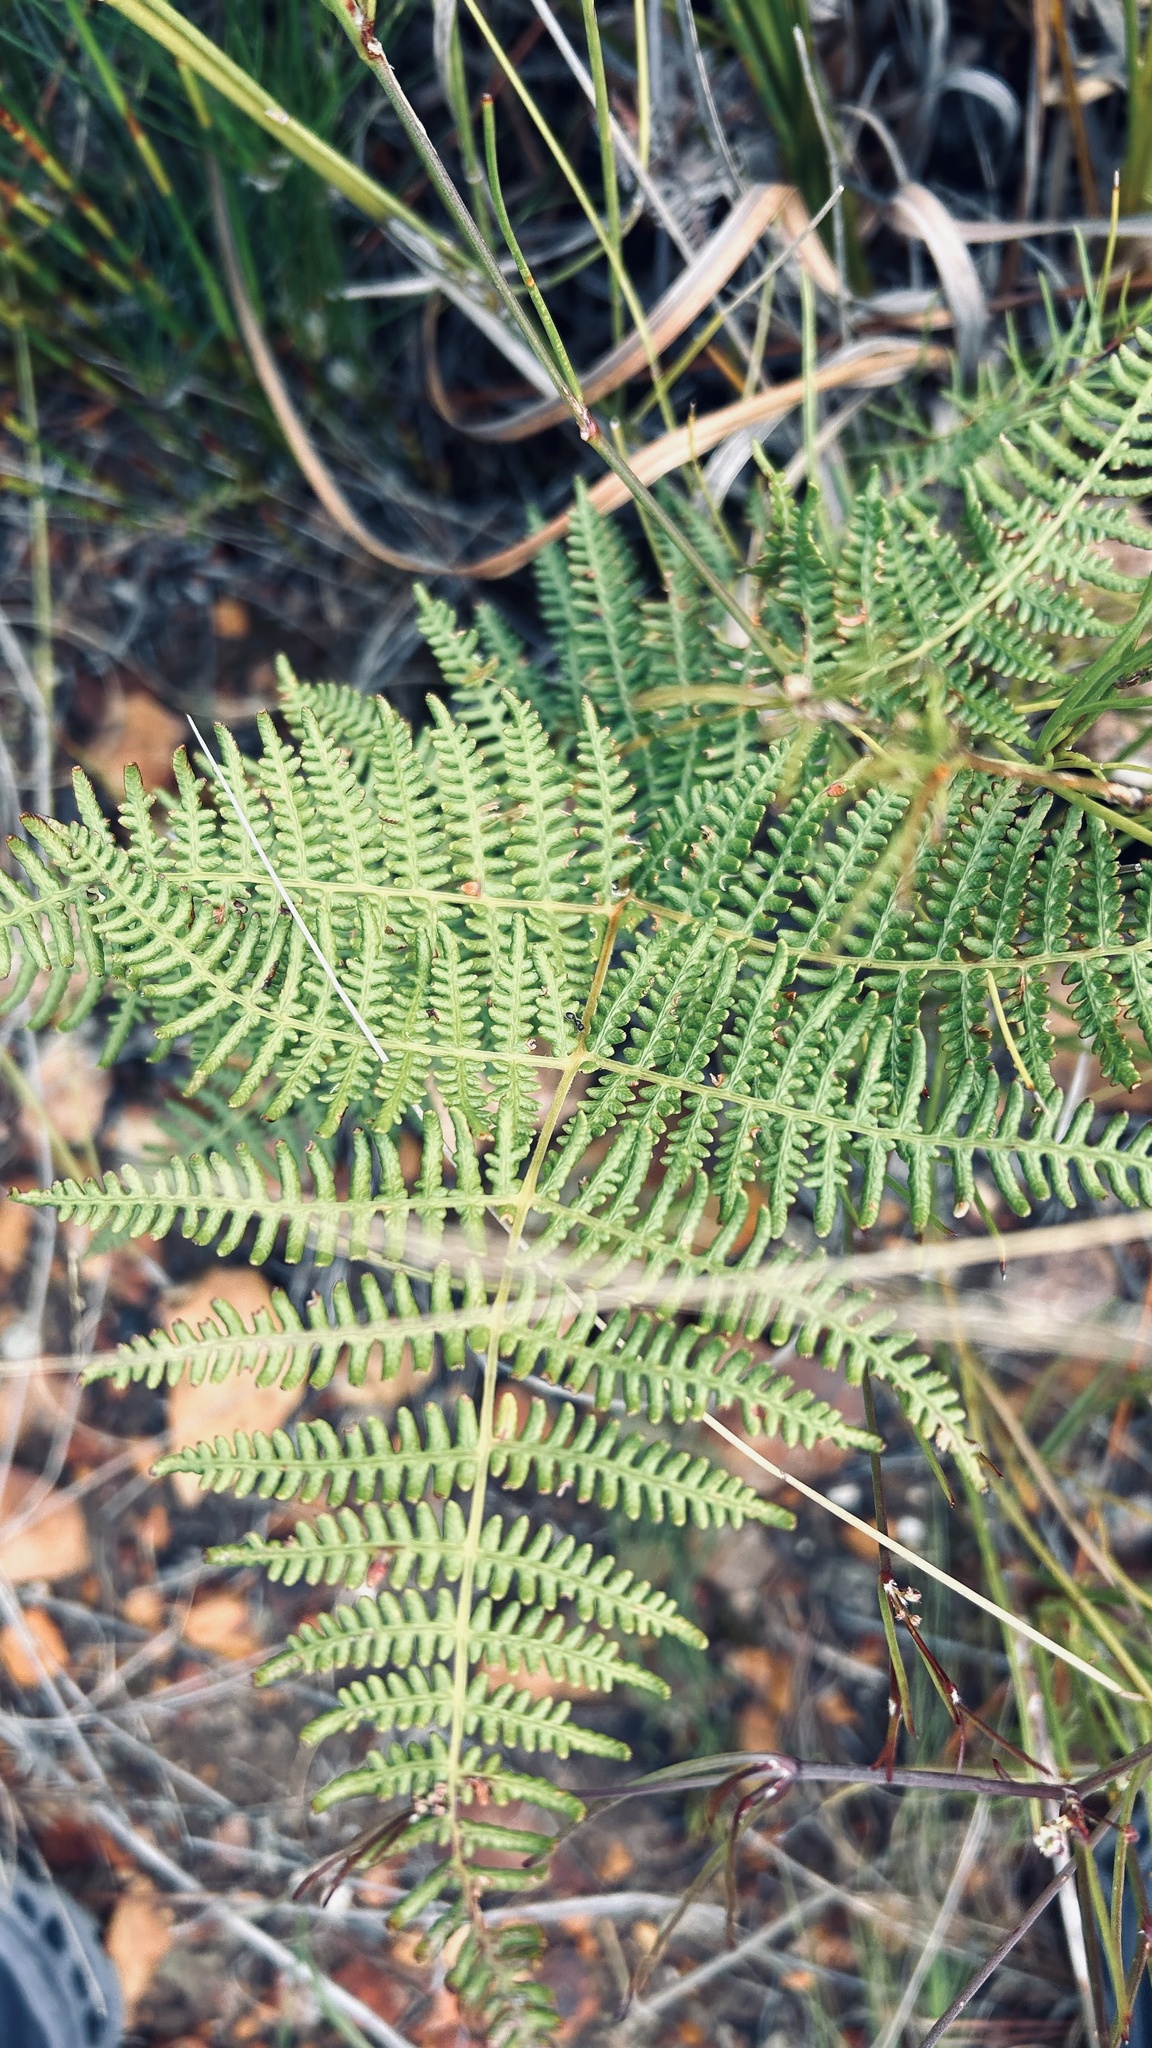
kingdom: Plantae
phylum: Tracheophyta
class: Polypodiopsida
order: Polypodiales
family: Dennstaedtiaceae
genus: Pteridium
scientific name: Pteridium aquilinum
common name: Bracken
